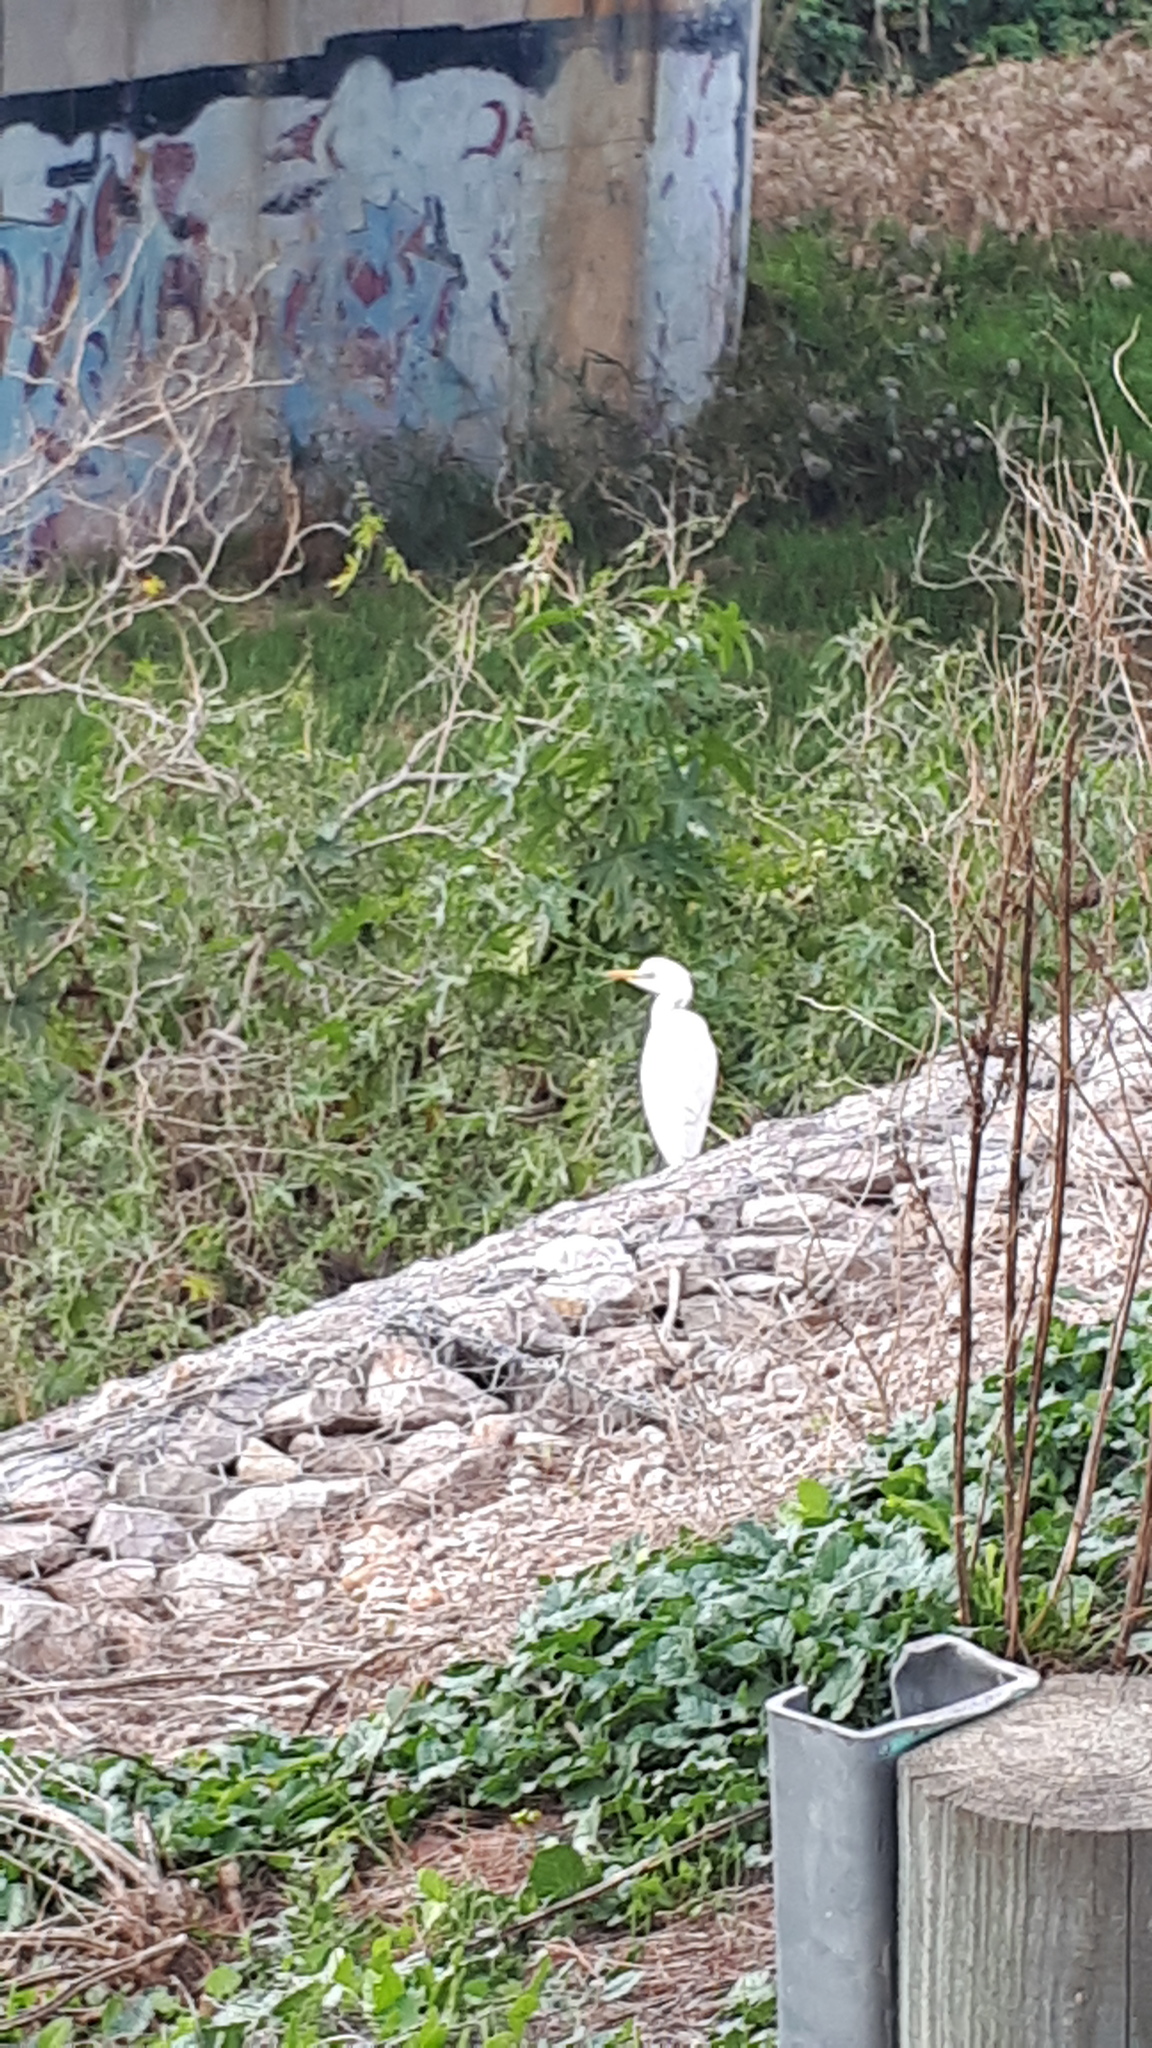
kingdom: Animalia
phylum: Chordata
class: Aves
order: Pelecaniformes
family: Ardeidae
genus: Bubulcus
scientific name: Bubulcus ibis
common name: Cattle egret
